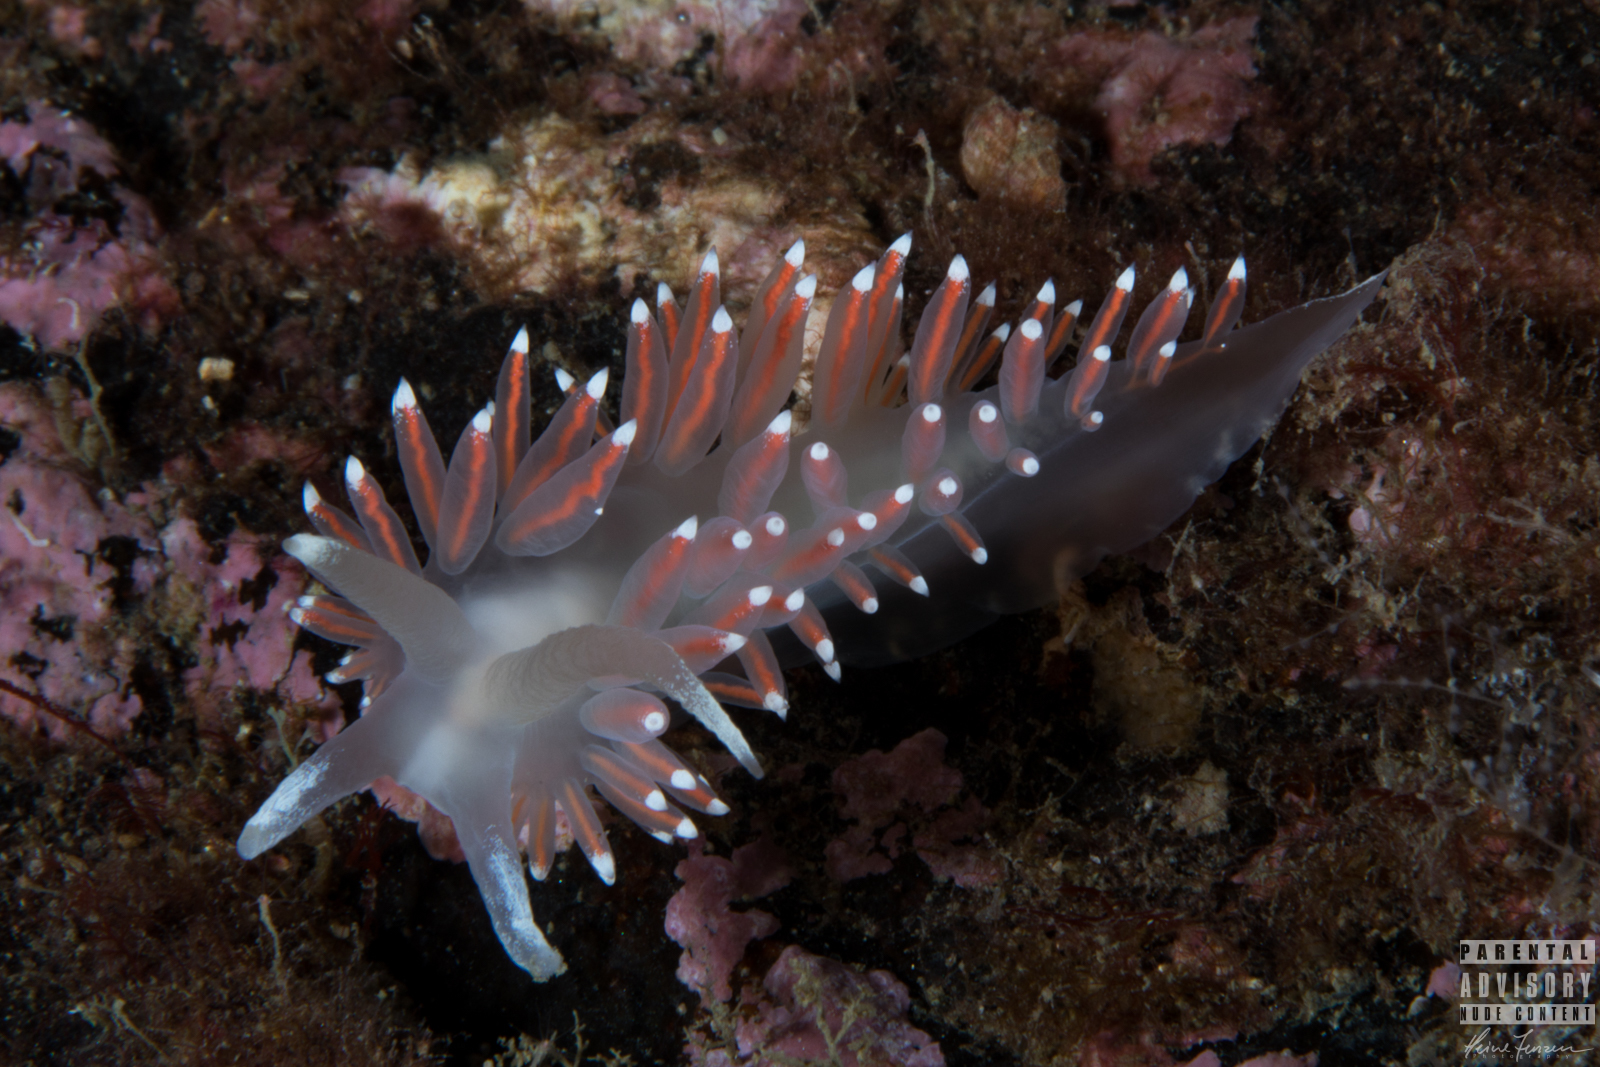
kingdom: Animalia
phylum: Mollusca
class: Gastropoda
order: Nudibranchia
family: Coryphellidae
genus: Coryphella
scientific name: Coryphella browni
